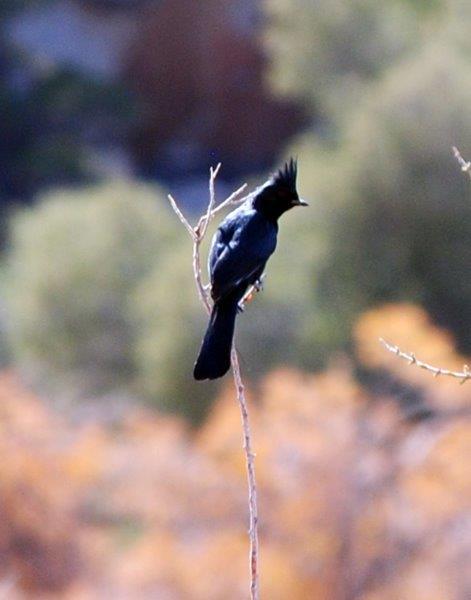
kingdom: Animalia
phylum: Chordata
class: Aves
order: Passeriformes
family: Ptilogonatidae
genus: Phainopepla
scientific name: Phainopepla nitens
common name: Phainopepla
